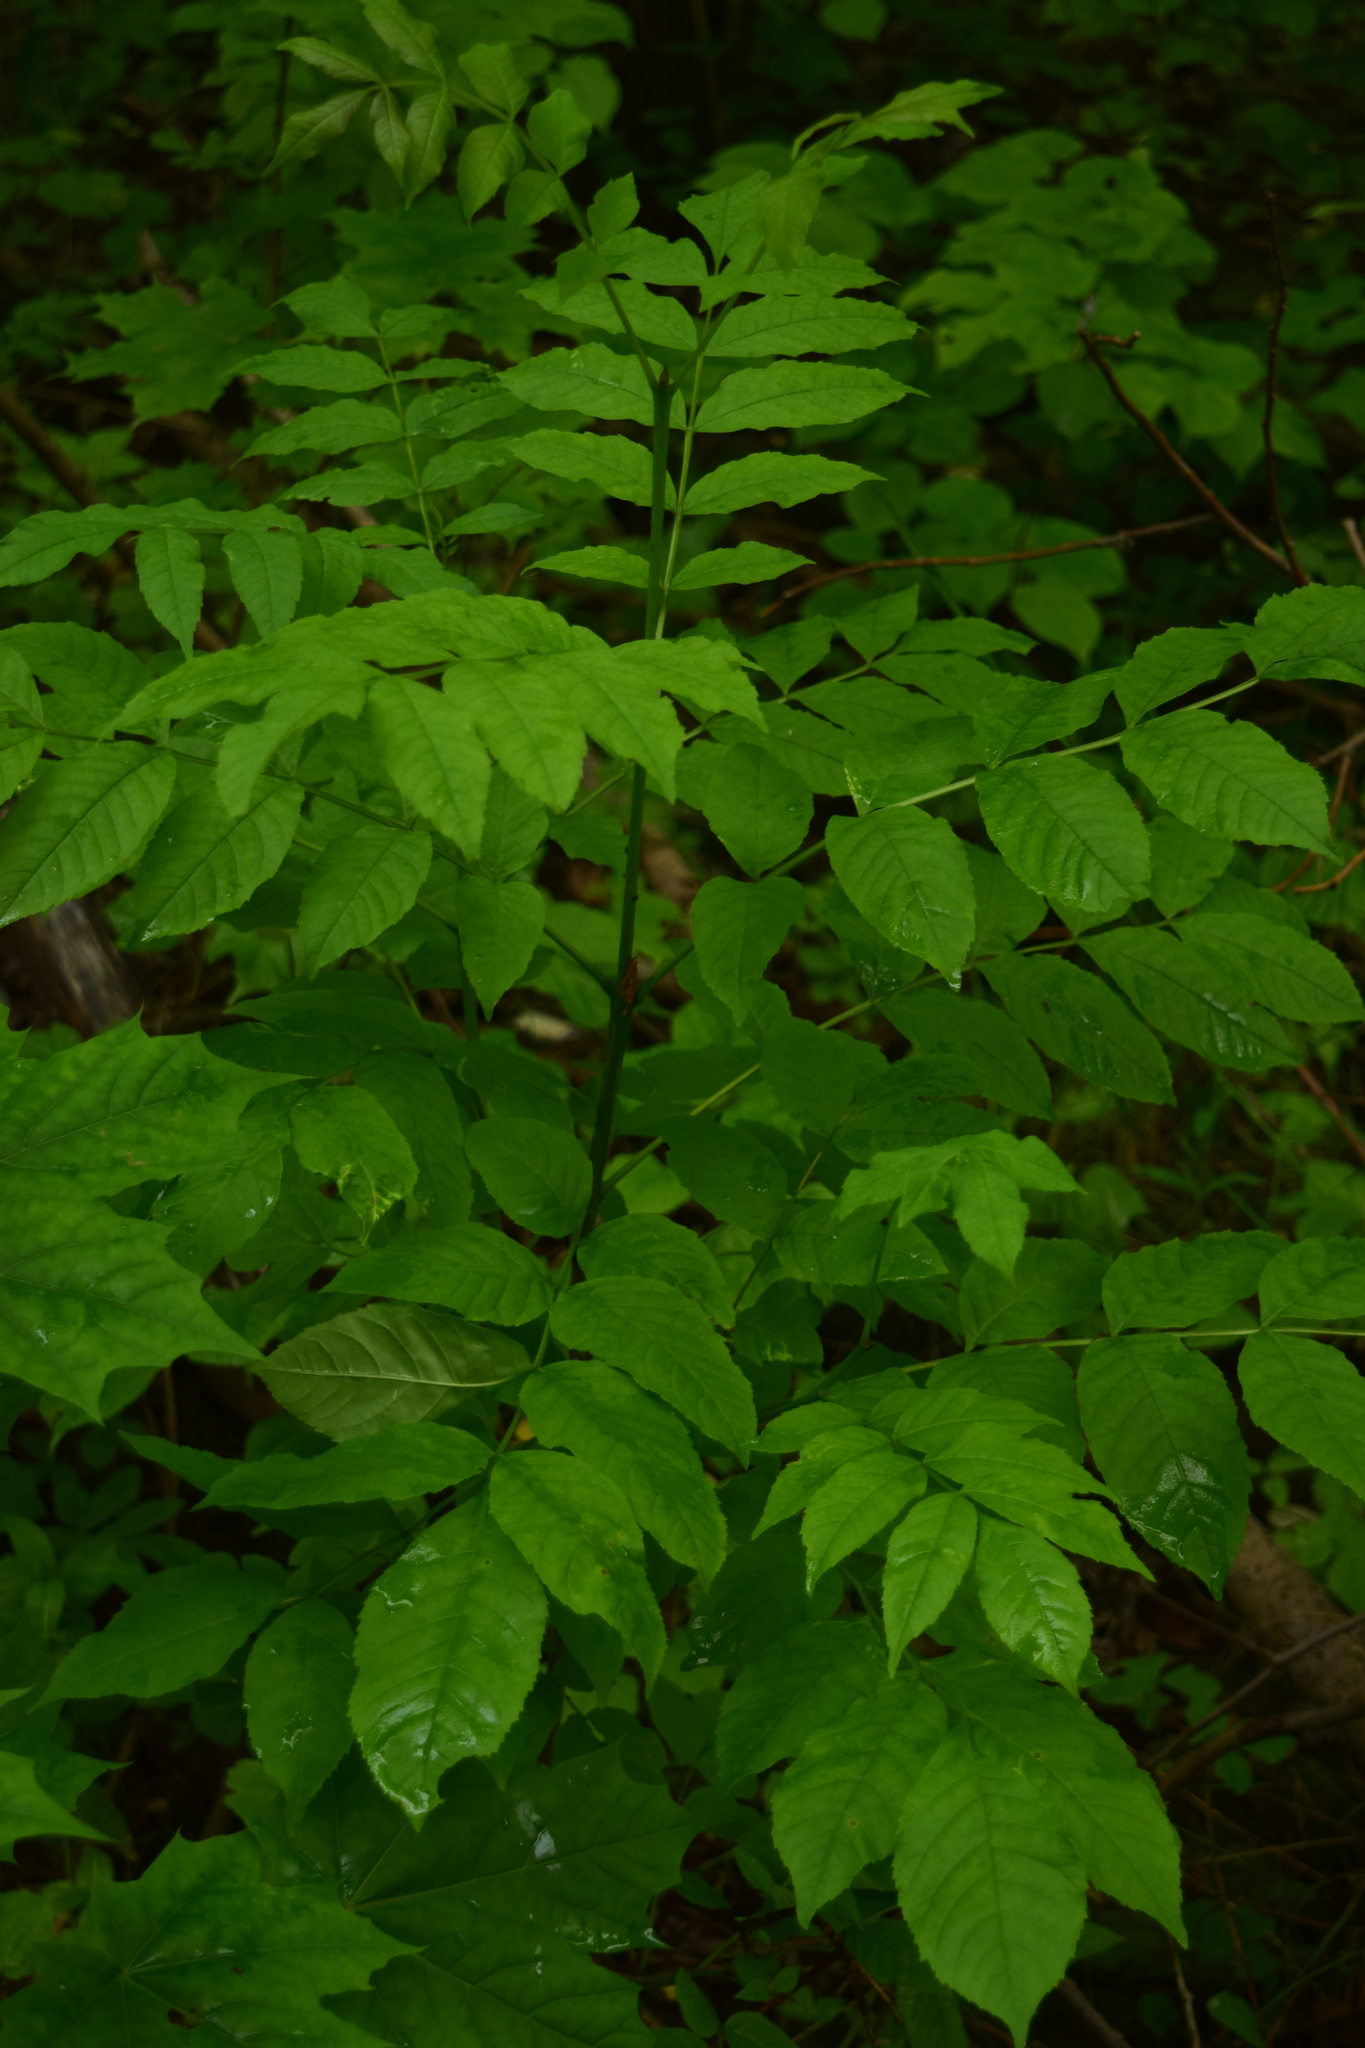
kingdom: Plantae
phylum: Tracheophyta
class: Magnoliopsida
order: Lamiales
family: Oleaceae
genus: Fraxinus
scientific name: Fraxinus excelsior
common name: European ash
